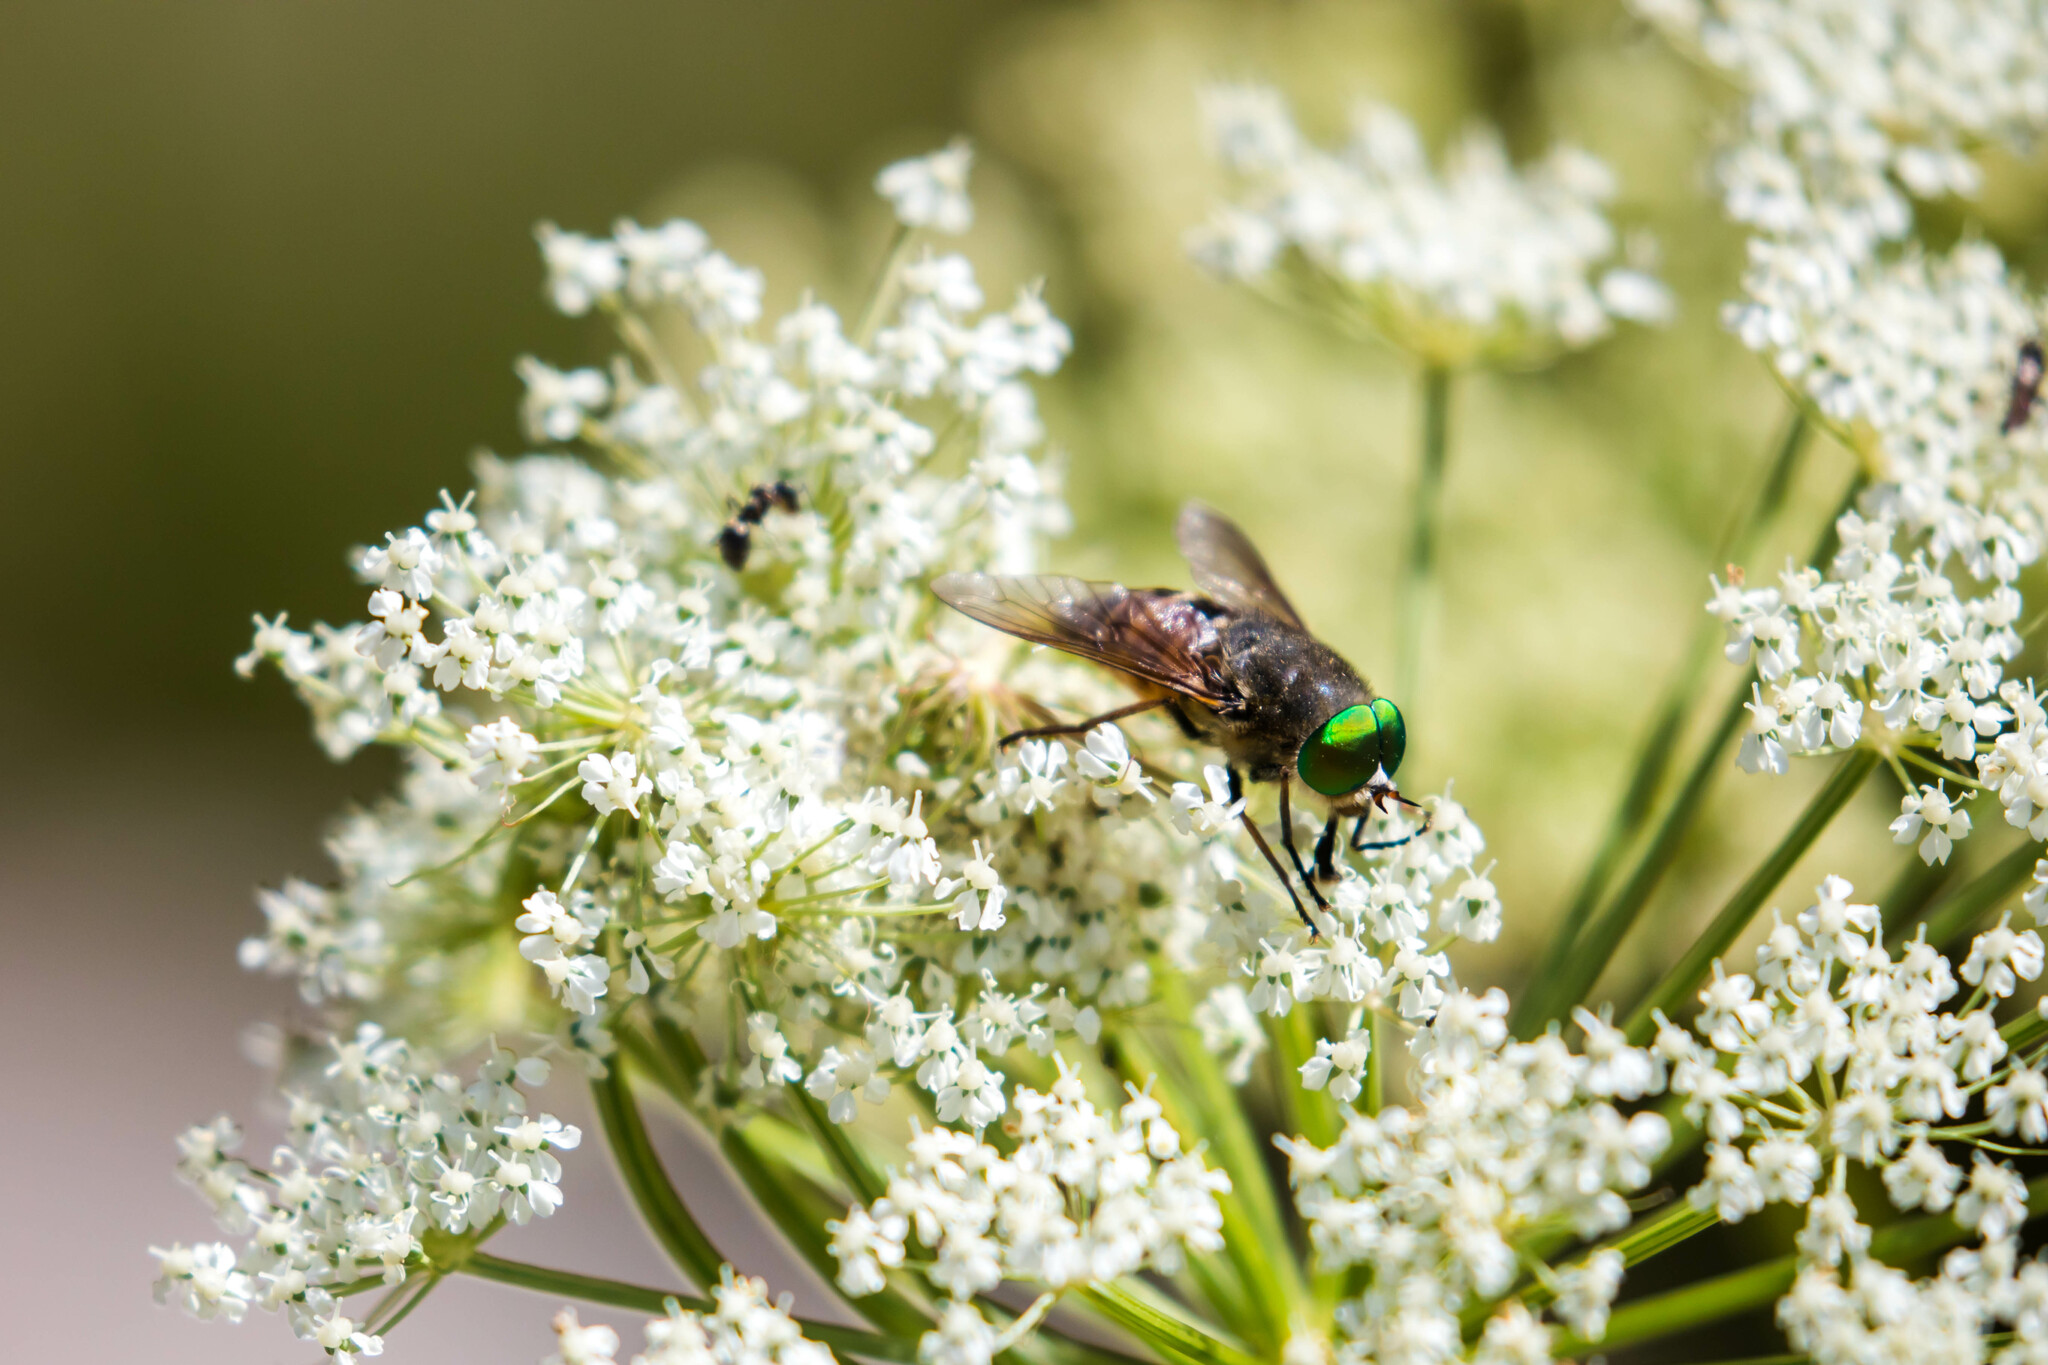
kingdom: Animalia
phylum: Arthropoda
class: Insecta
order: Diptera
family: Tabanidae
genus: Philipomyia
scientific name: Philipomyia aprica
